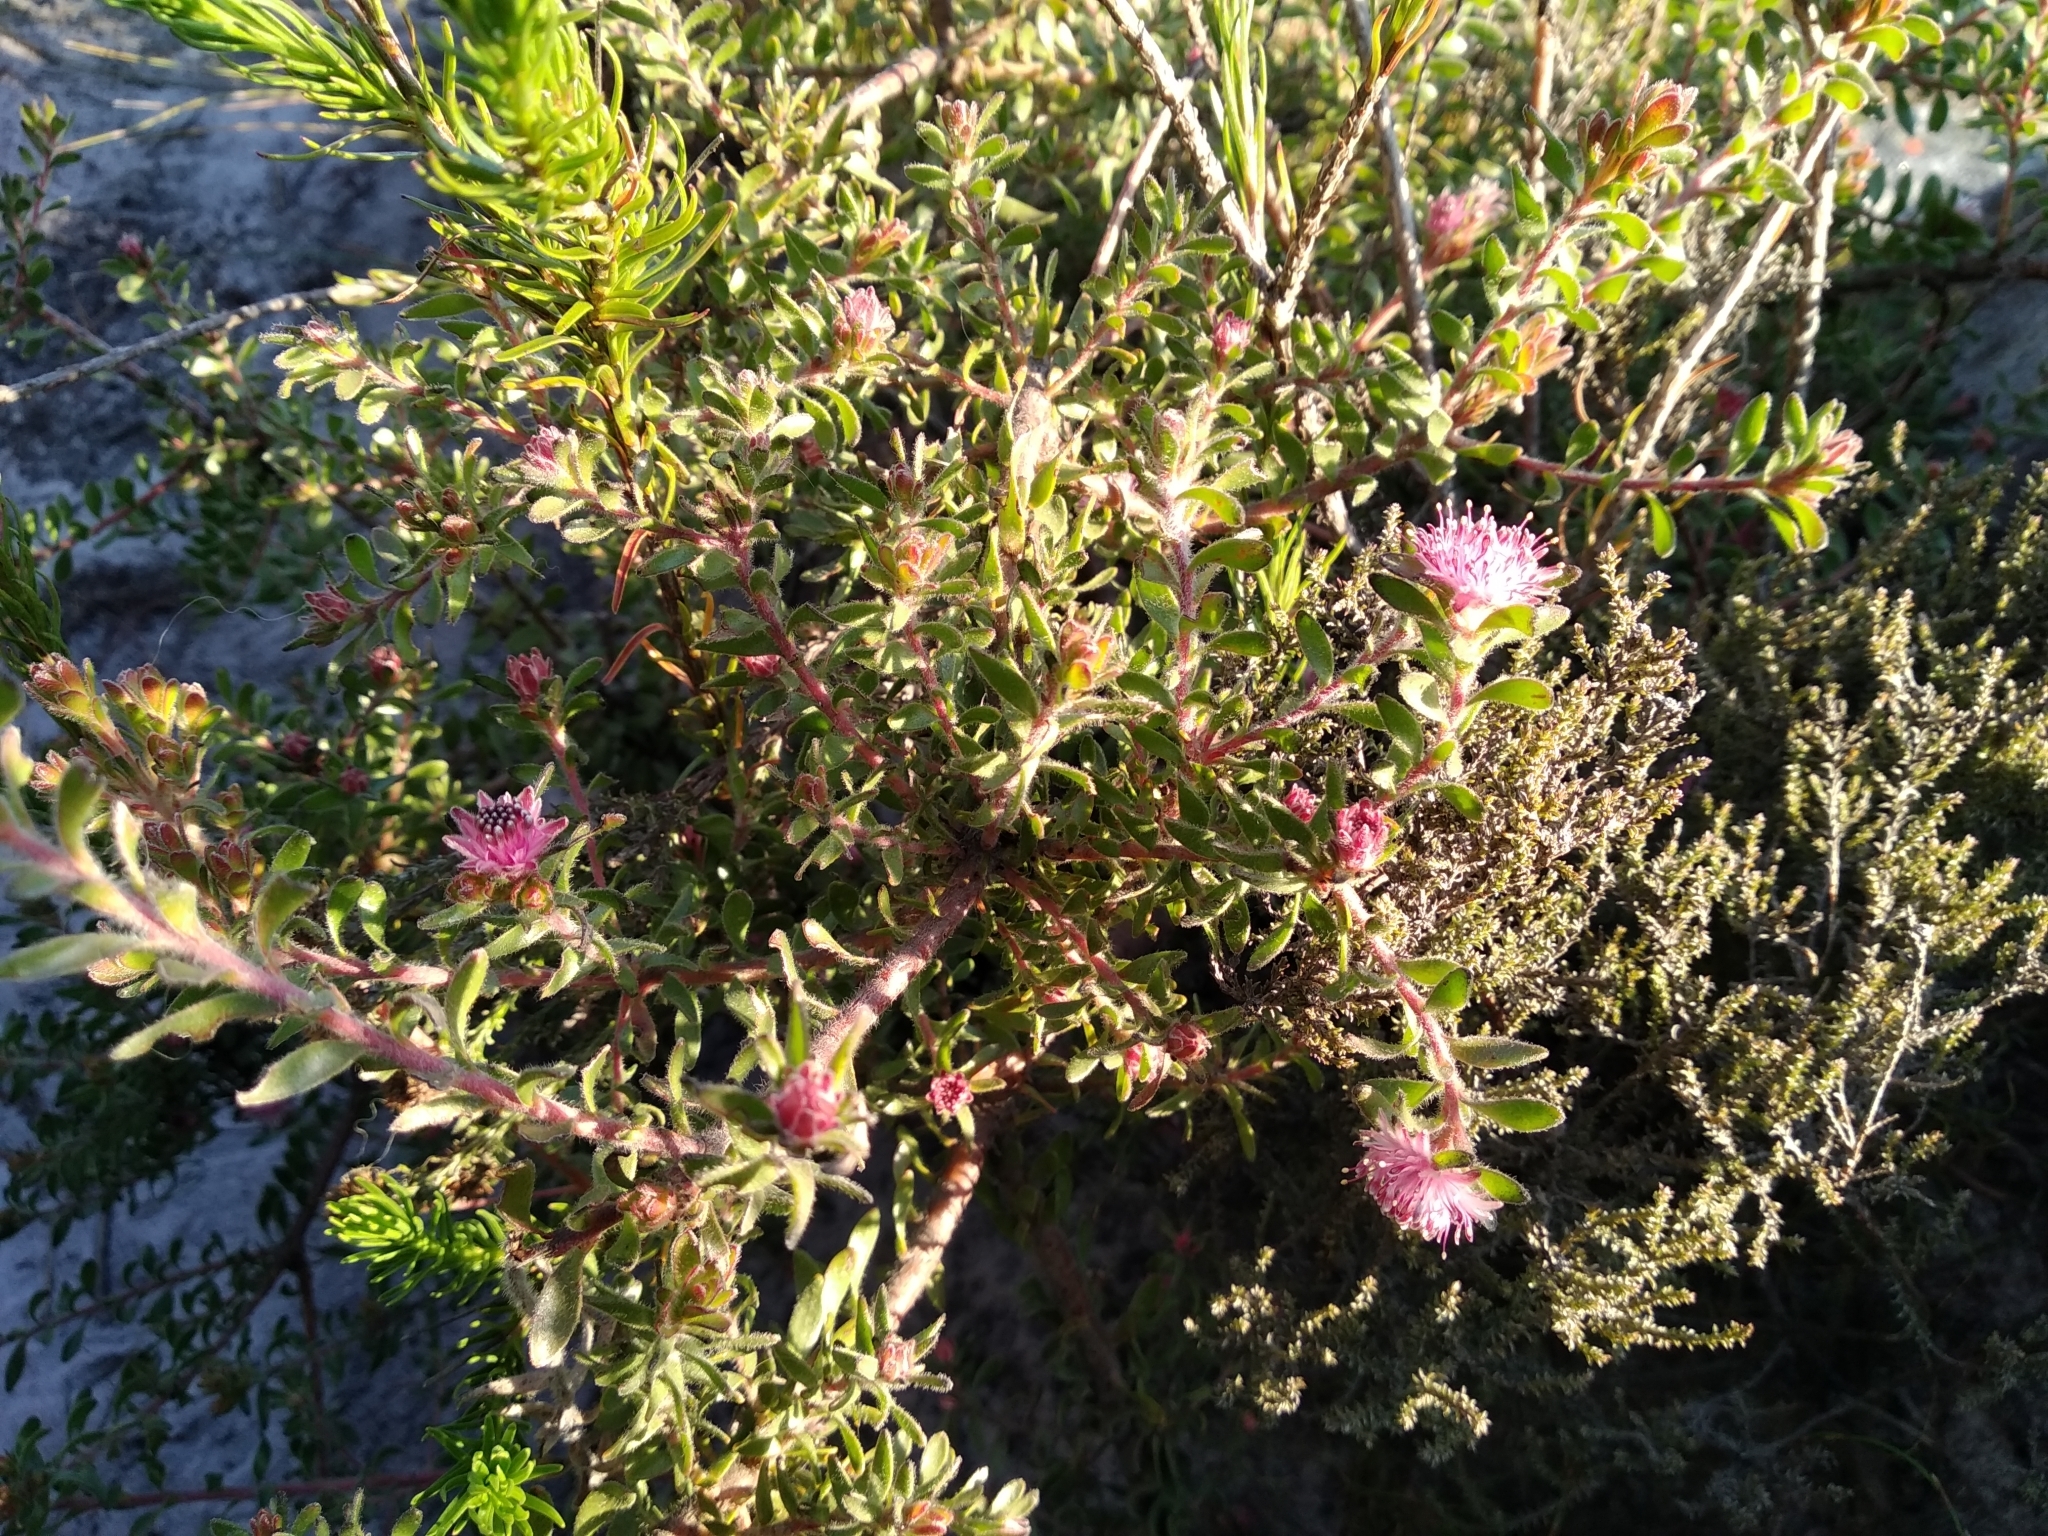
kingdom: Plantae
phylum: Tracheophyta
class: Magnoliopsida
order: Proteales
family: Proteaceae
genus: Diastella
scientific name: Diastella divaricata
